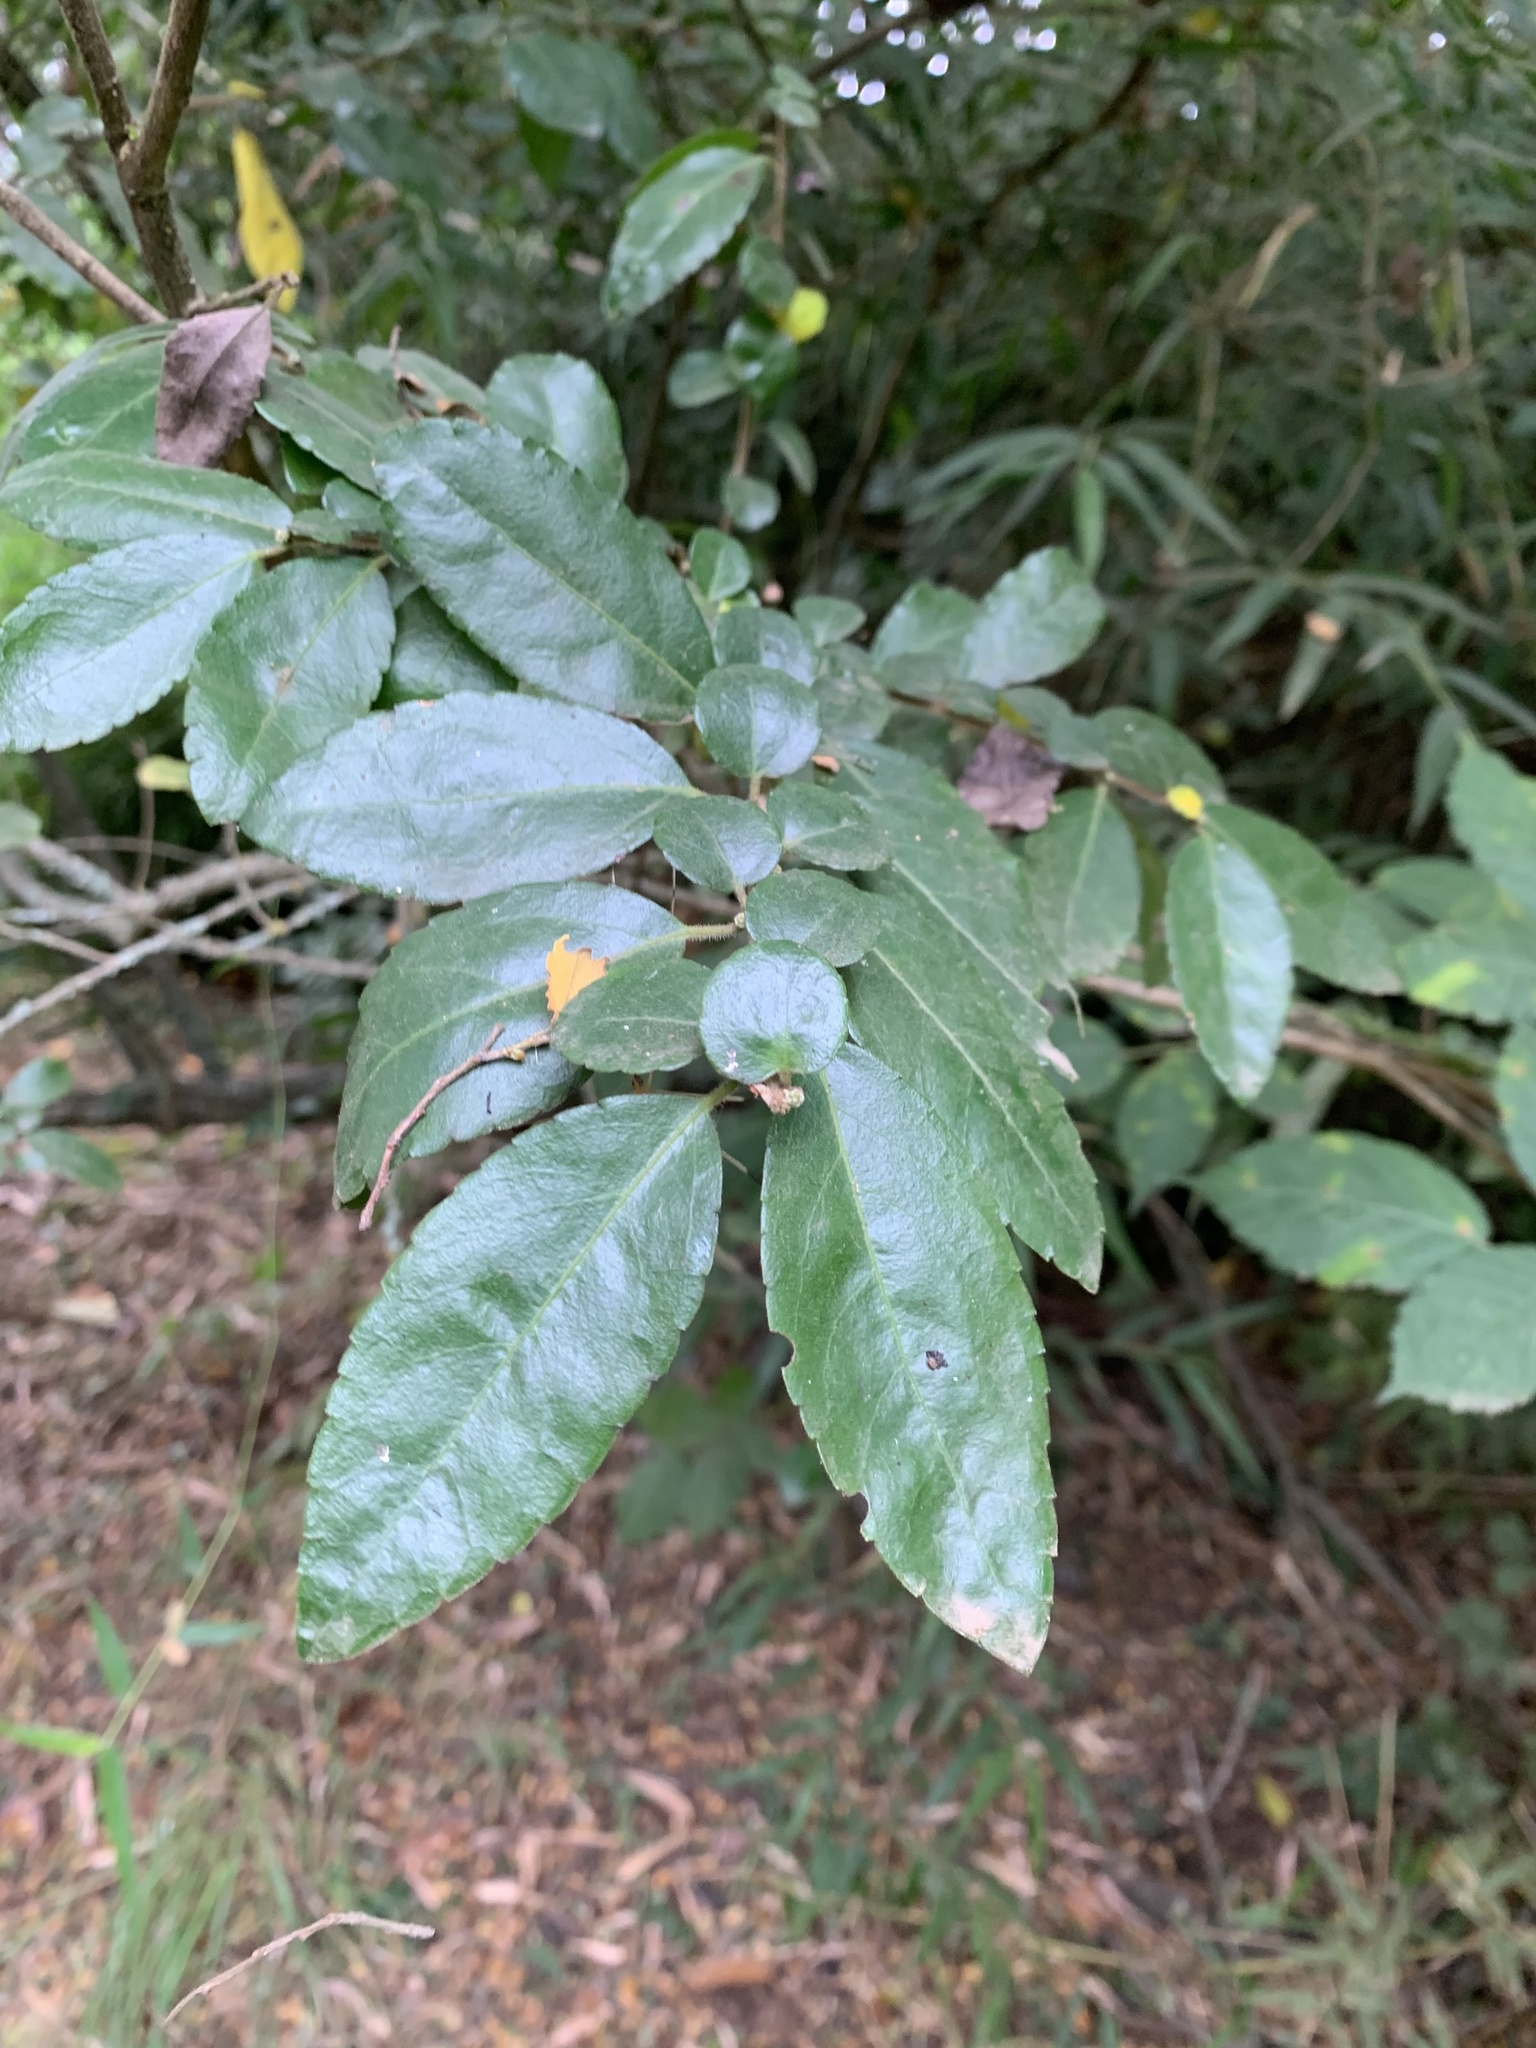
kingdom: Plantae
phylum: Tracheophyta
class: Magnoliopsida
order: Malpighiales
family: Salicaceae
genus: Azara
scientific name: Azara serrata
